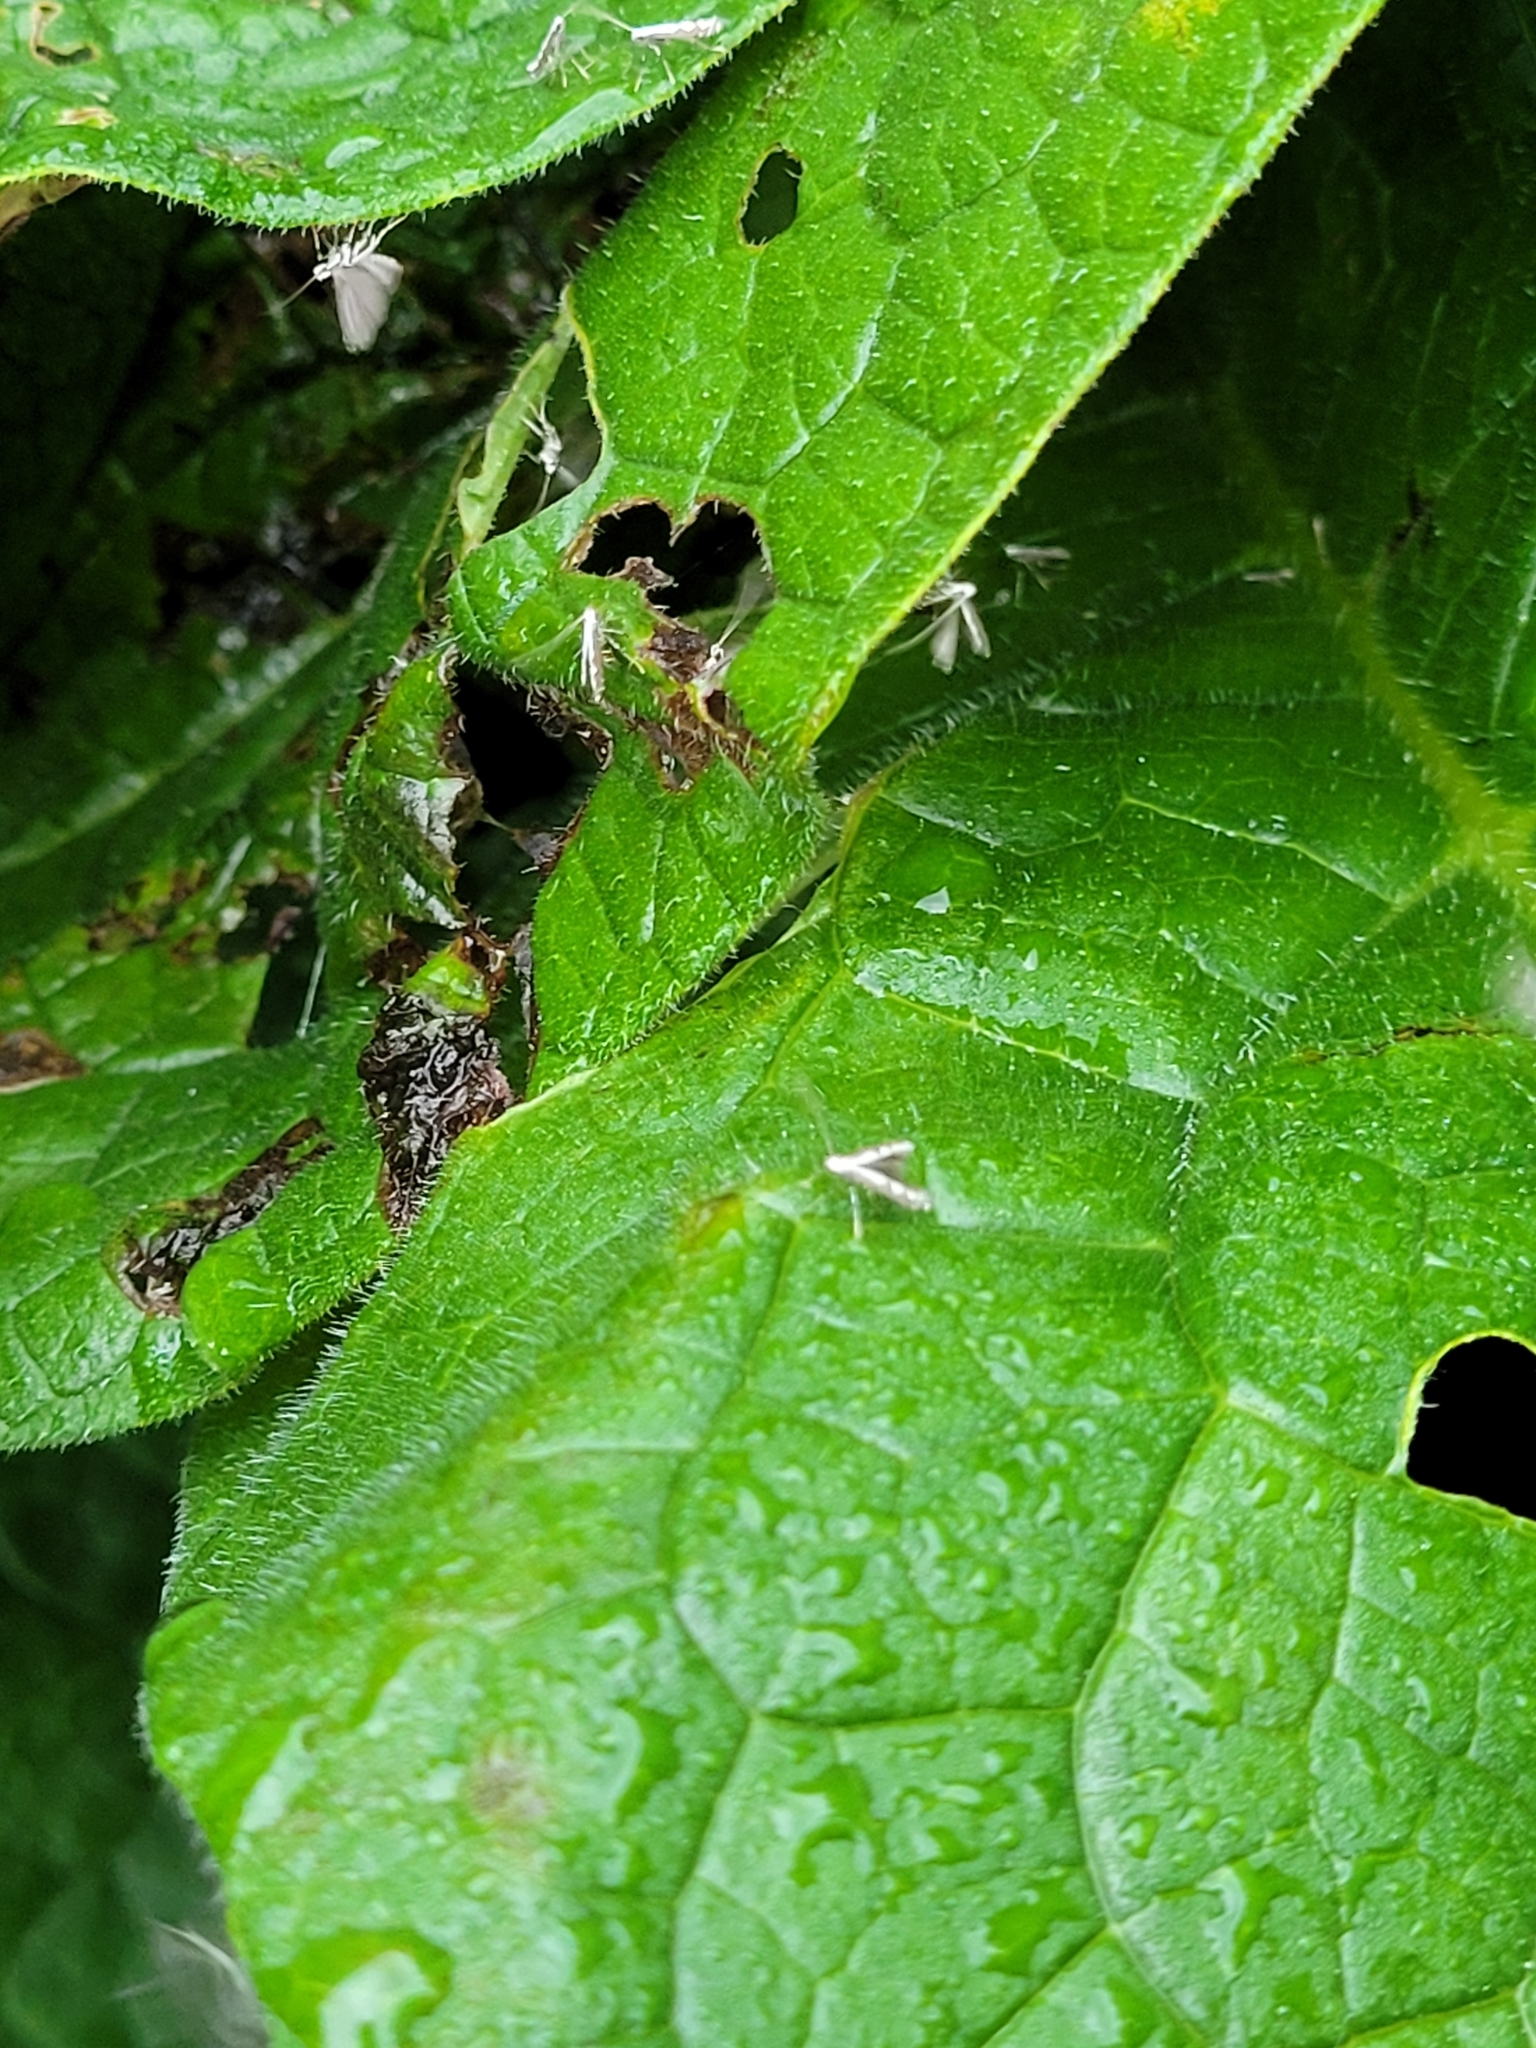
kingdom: Animalia
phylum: Arthropoda
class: Insecta
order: Lepidoptera
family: Gracillariidae
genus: Dialectica
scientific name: Dialectica scalariella
